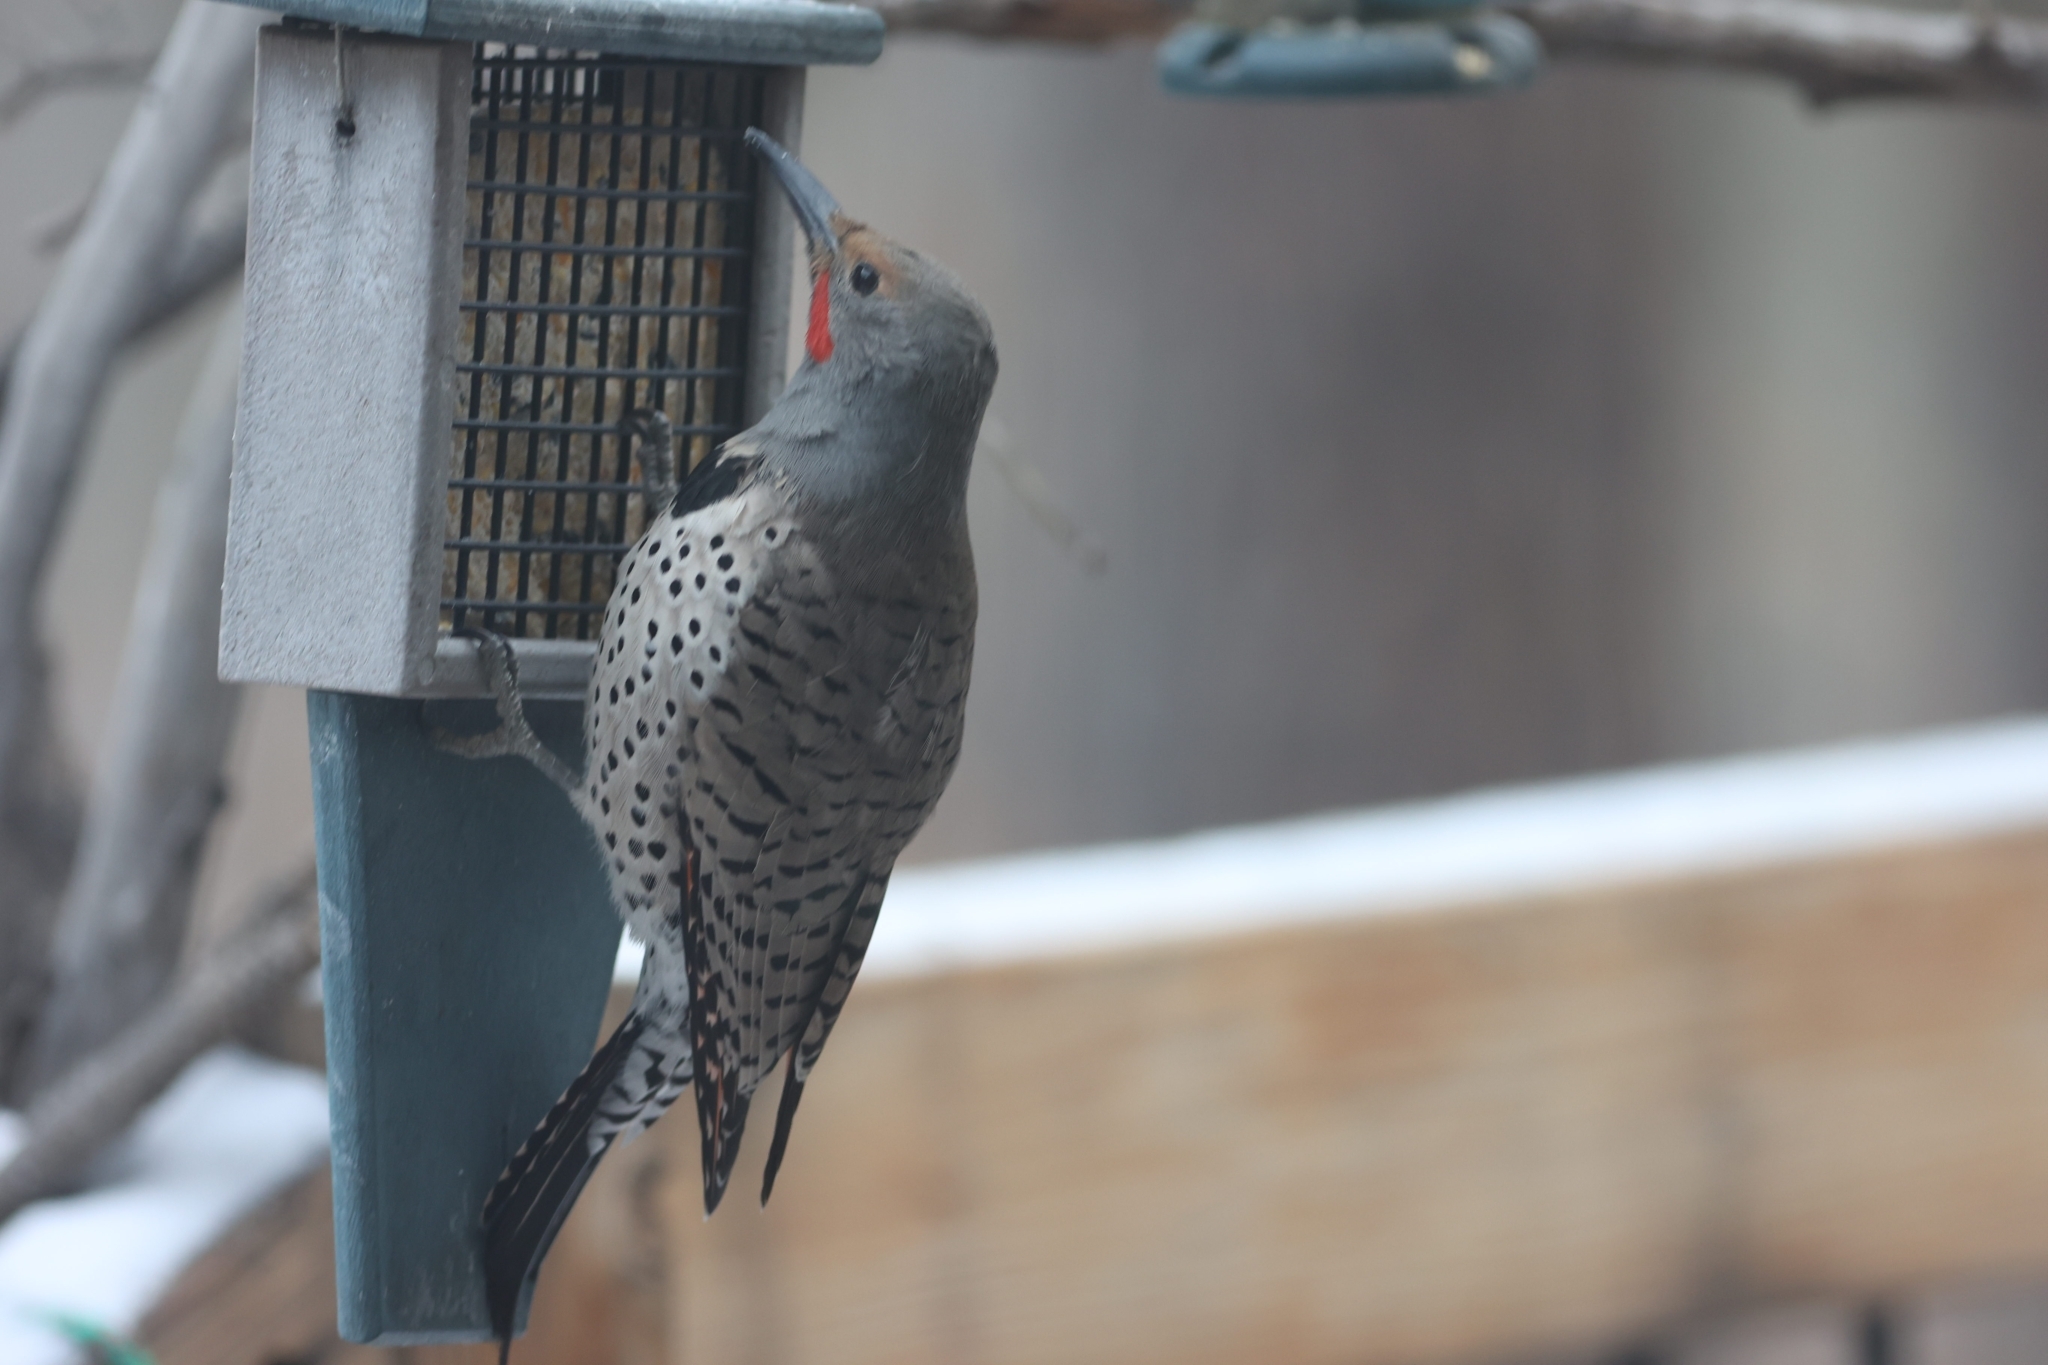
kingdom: Animalia
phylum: Chordata
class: Aves
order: Piciformes
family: Picidae
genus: Colaptes
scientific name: Colaptes auratus
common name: Northern flicker
